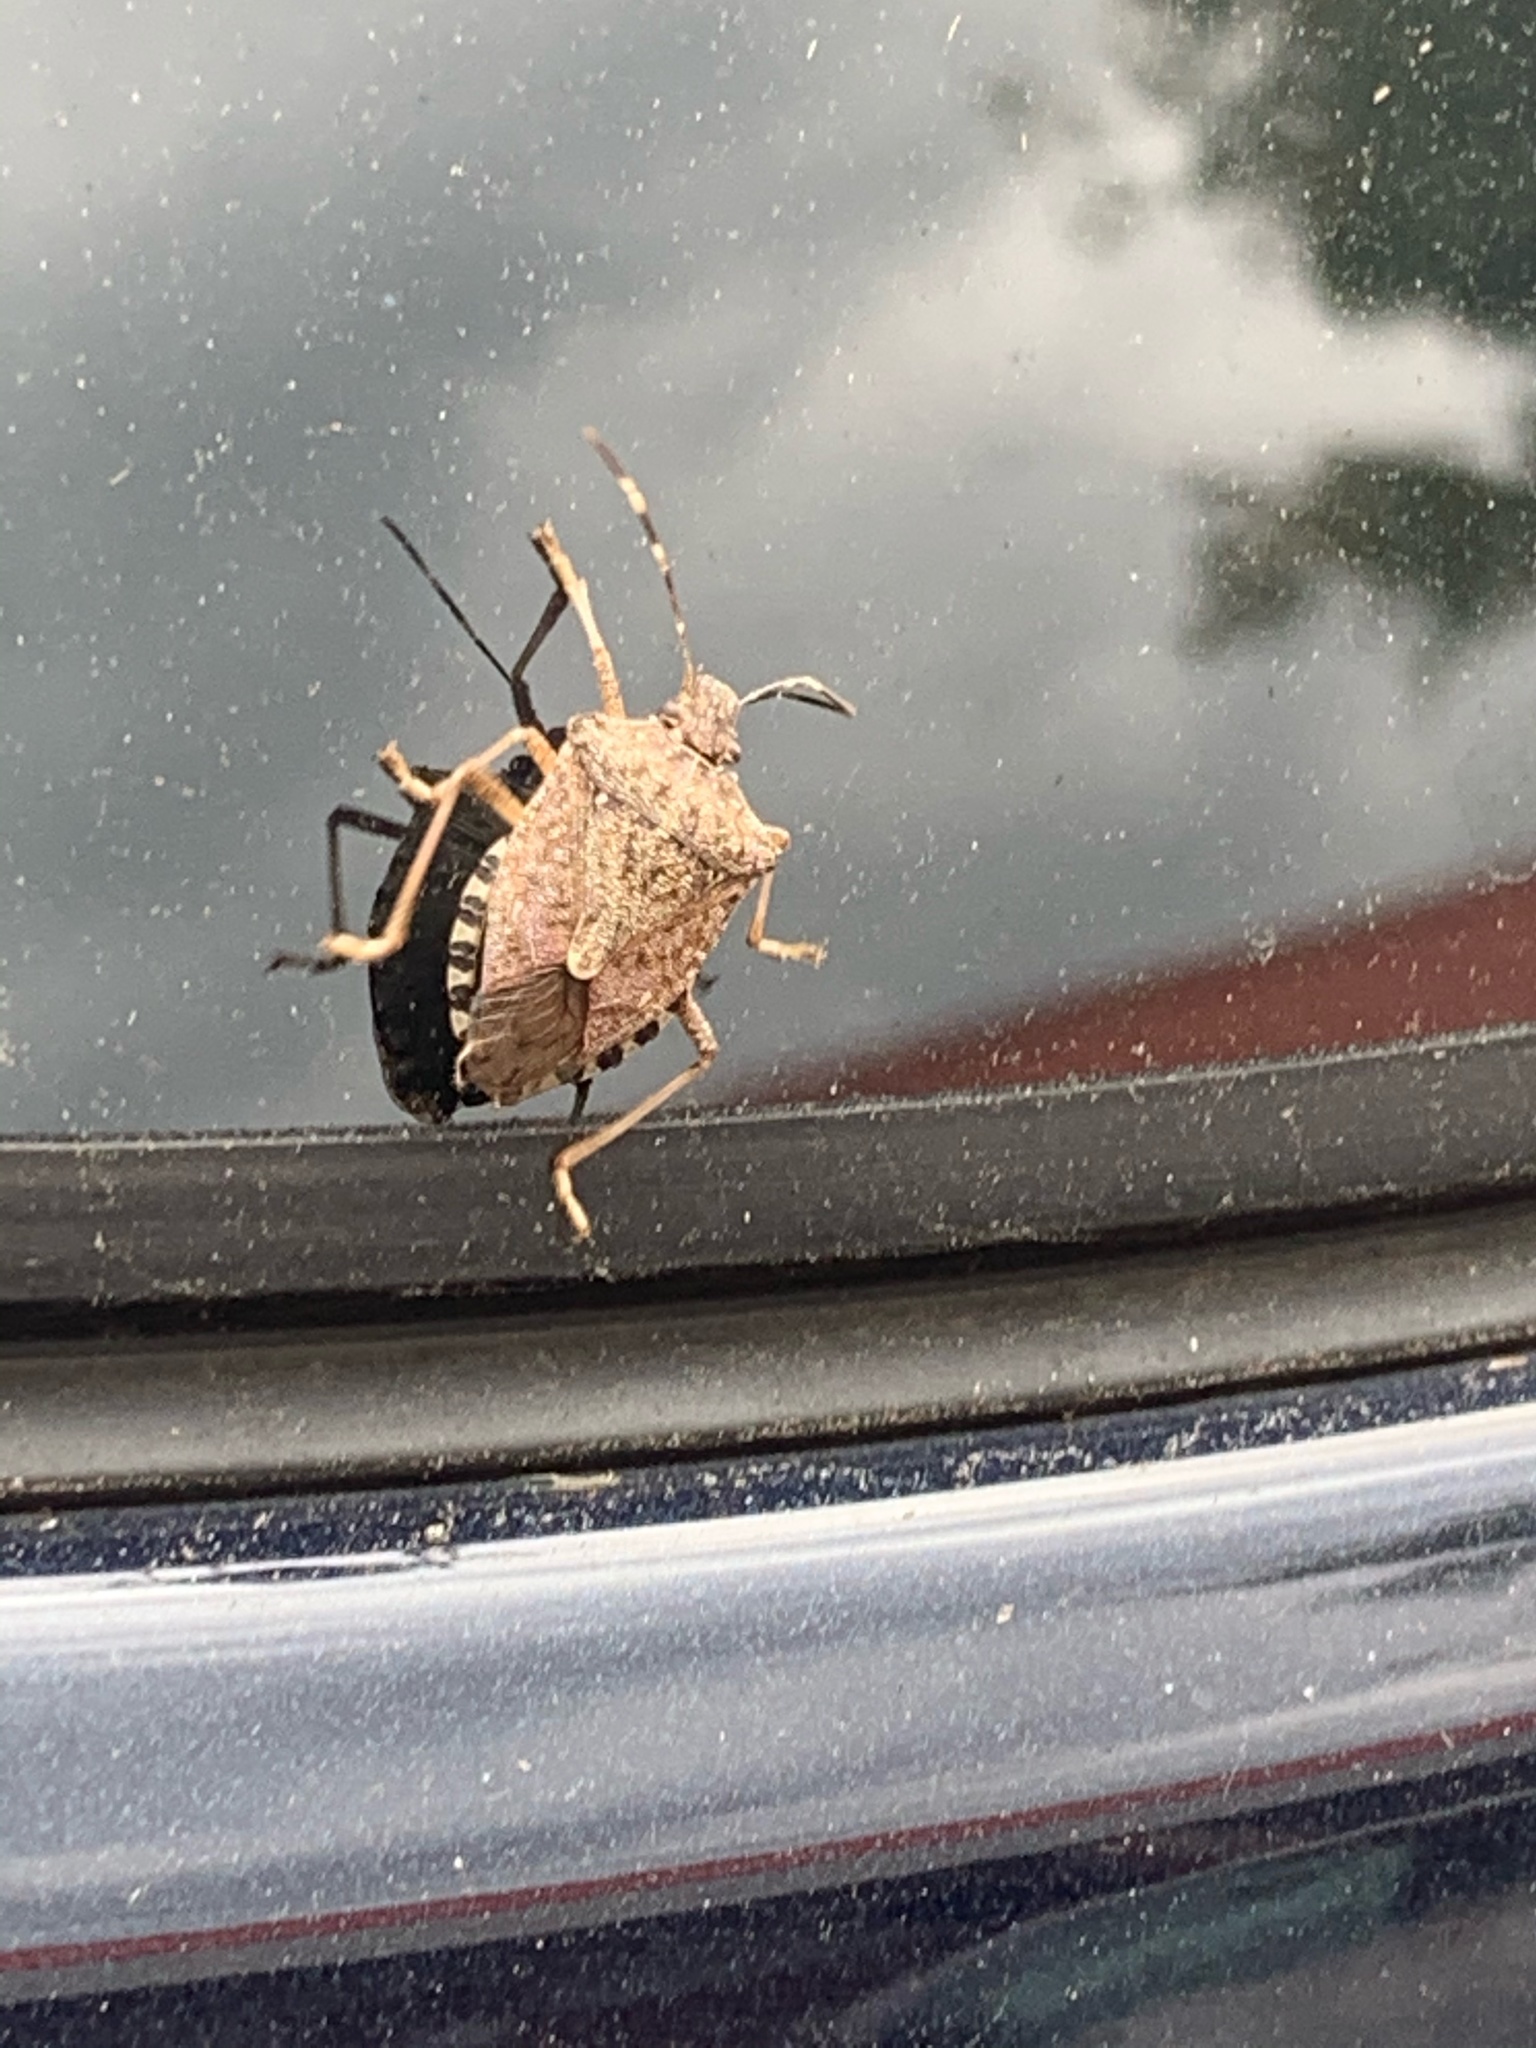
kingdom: Animalia
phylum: Arthropoda
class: Insecta
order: Hemiptera
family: Pentatomidae
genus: Halyomorpha
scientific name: Halyomorpha halys
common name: Brown marmorated stink bug
